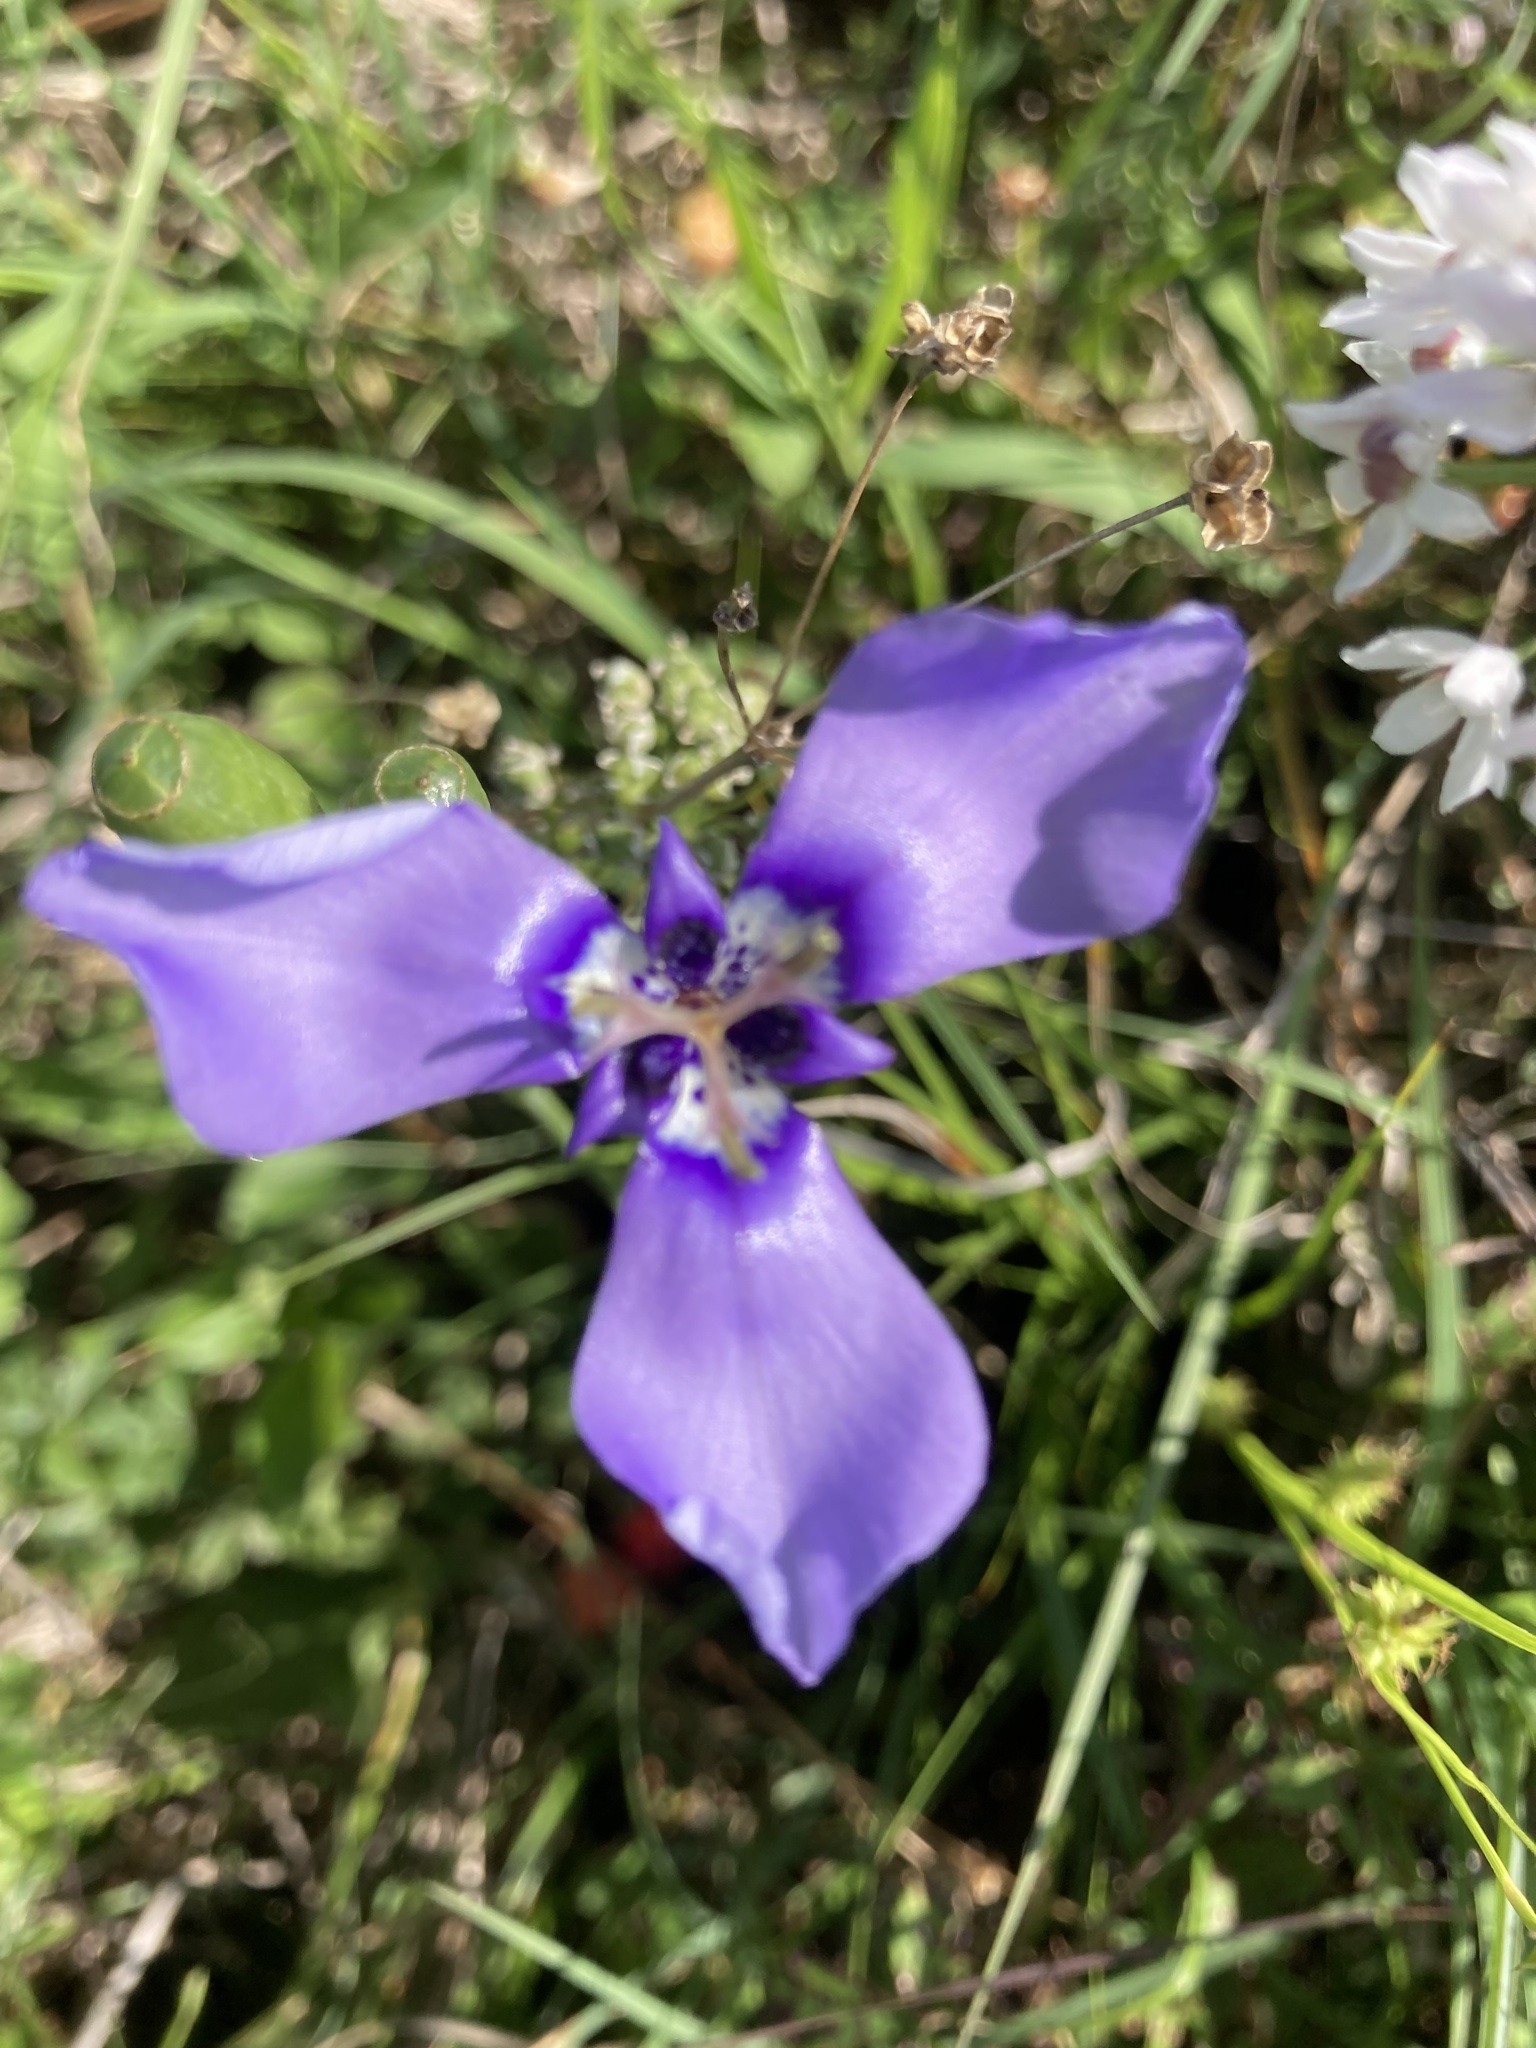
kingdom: Plantae
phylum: Tracheophyta
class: Liliopsida
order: Asparagales
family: Iridaceae
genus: Herbertia
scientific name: Herbertia lahue
